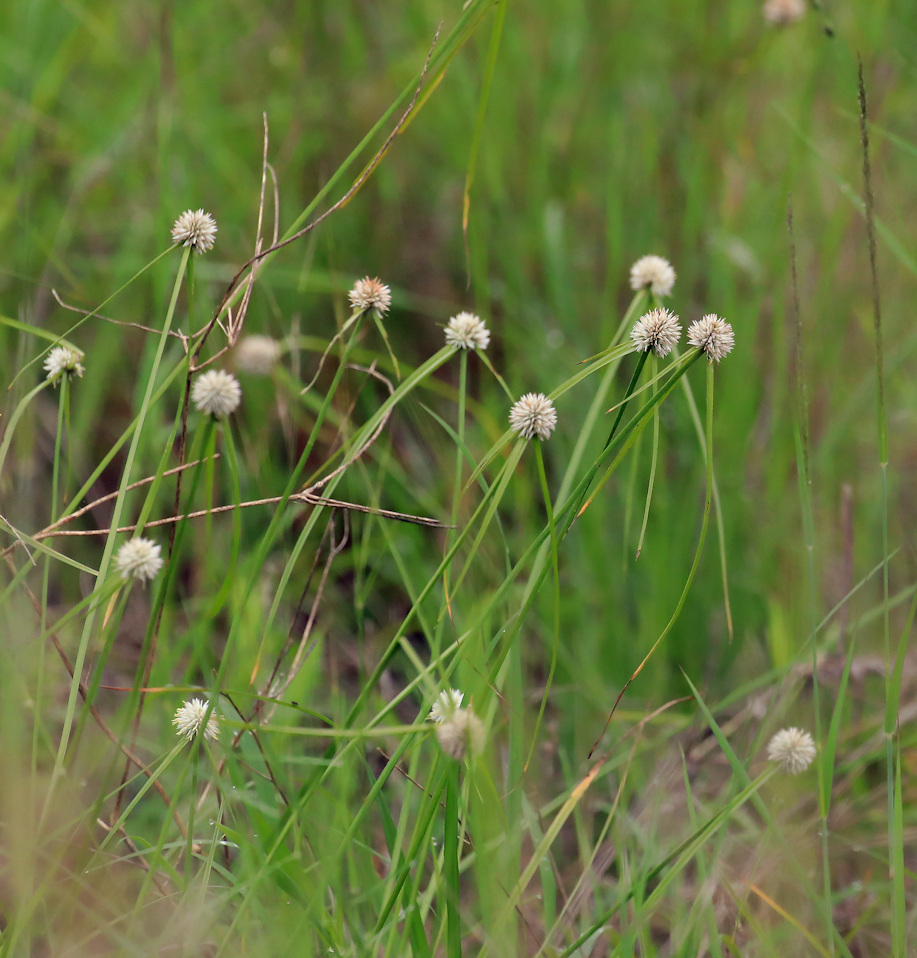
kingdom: Plantae
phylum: Tracheophyta
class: Liliopsida
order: Poales
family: Cyperaceae
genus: Cyperus
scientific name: Cyperus alatus
